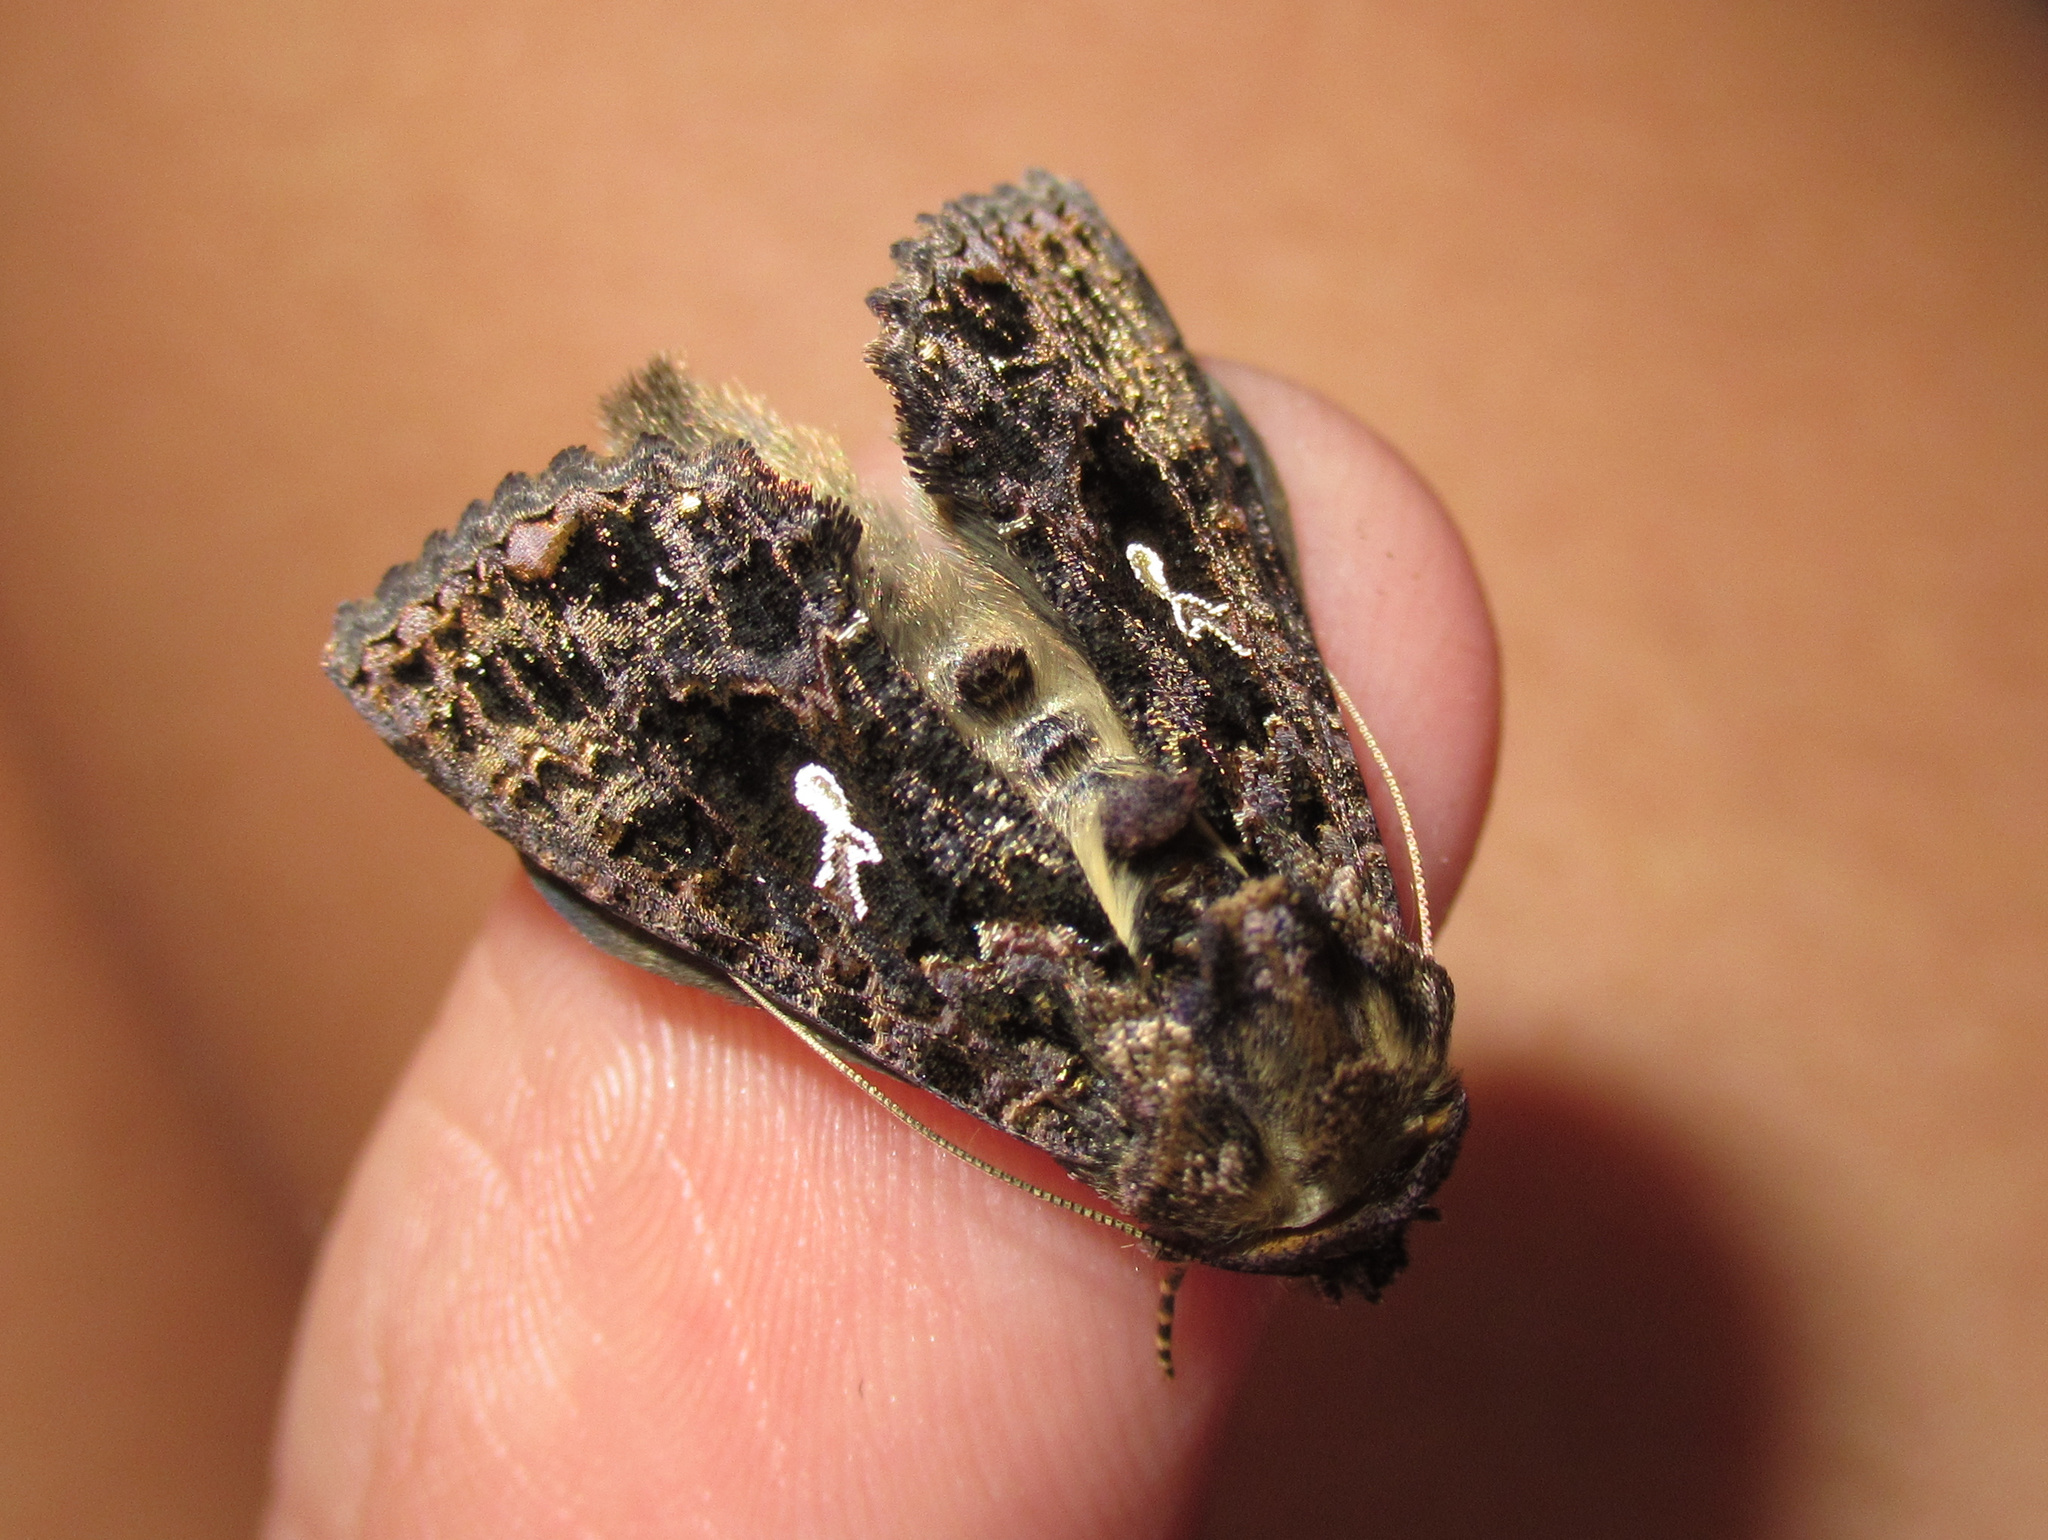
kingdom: Animalia
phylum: Arthropoda
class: Insecta
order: Lepidoptera
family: Noctuidae
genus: Ctenoplusia
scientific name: Ctenoplusia limbirena
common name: Scar bank gem
